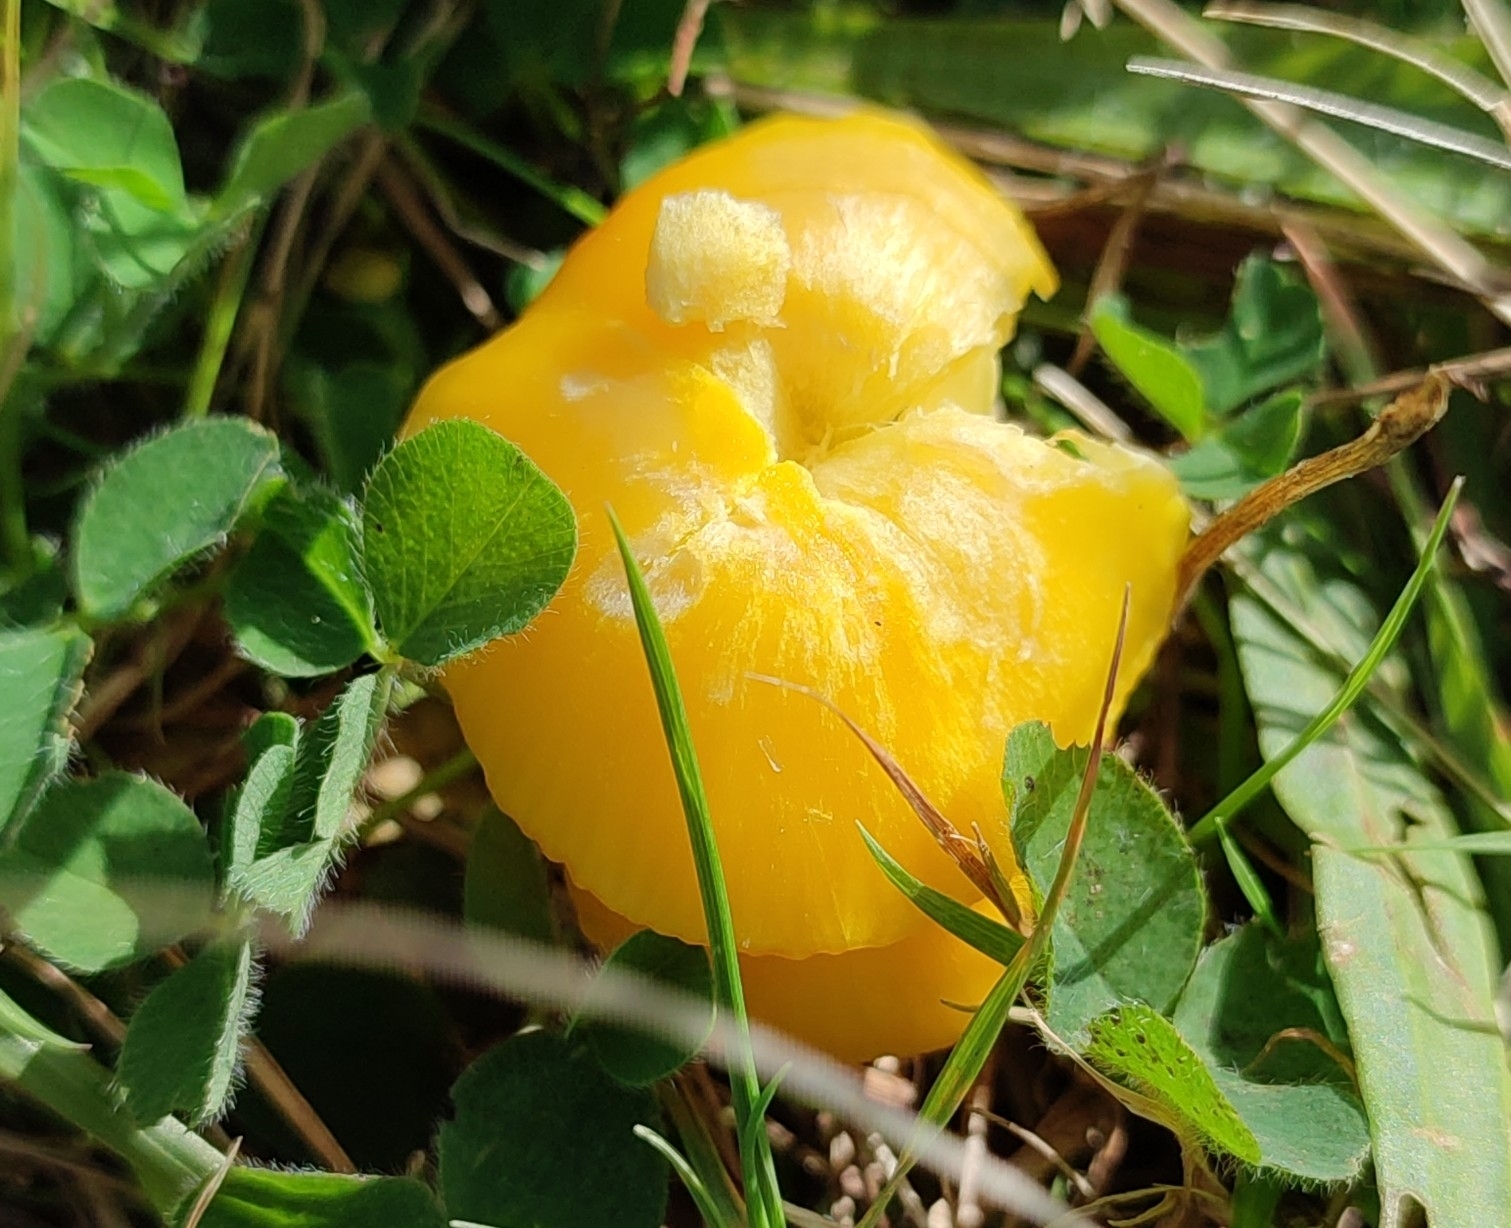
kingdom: Fungi
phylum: Basidiomycota
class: Agaricomycetes
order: Agaricales
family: Hygrophoraceae
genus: Hygrocybe
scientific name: Hygrocybe ceracea
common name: Butter waxcap
